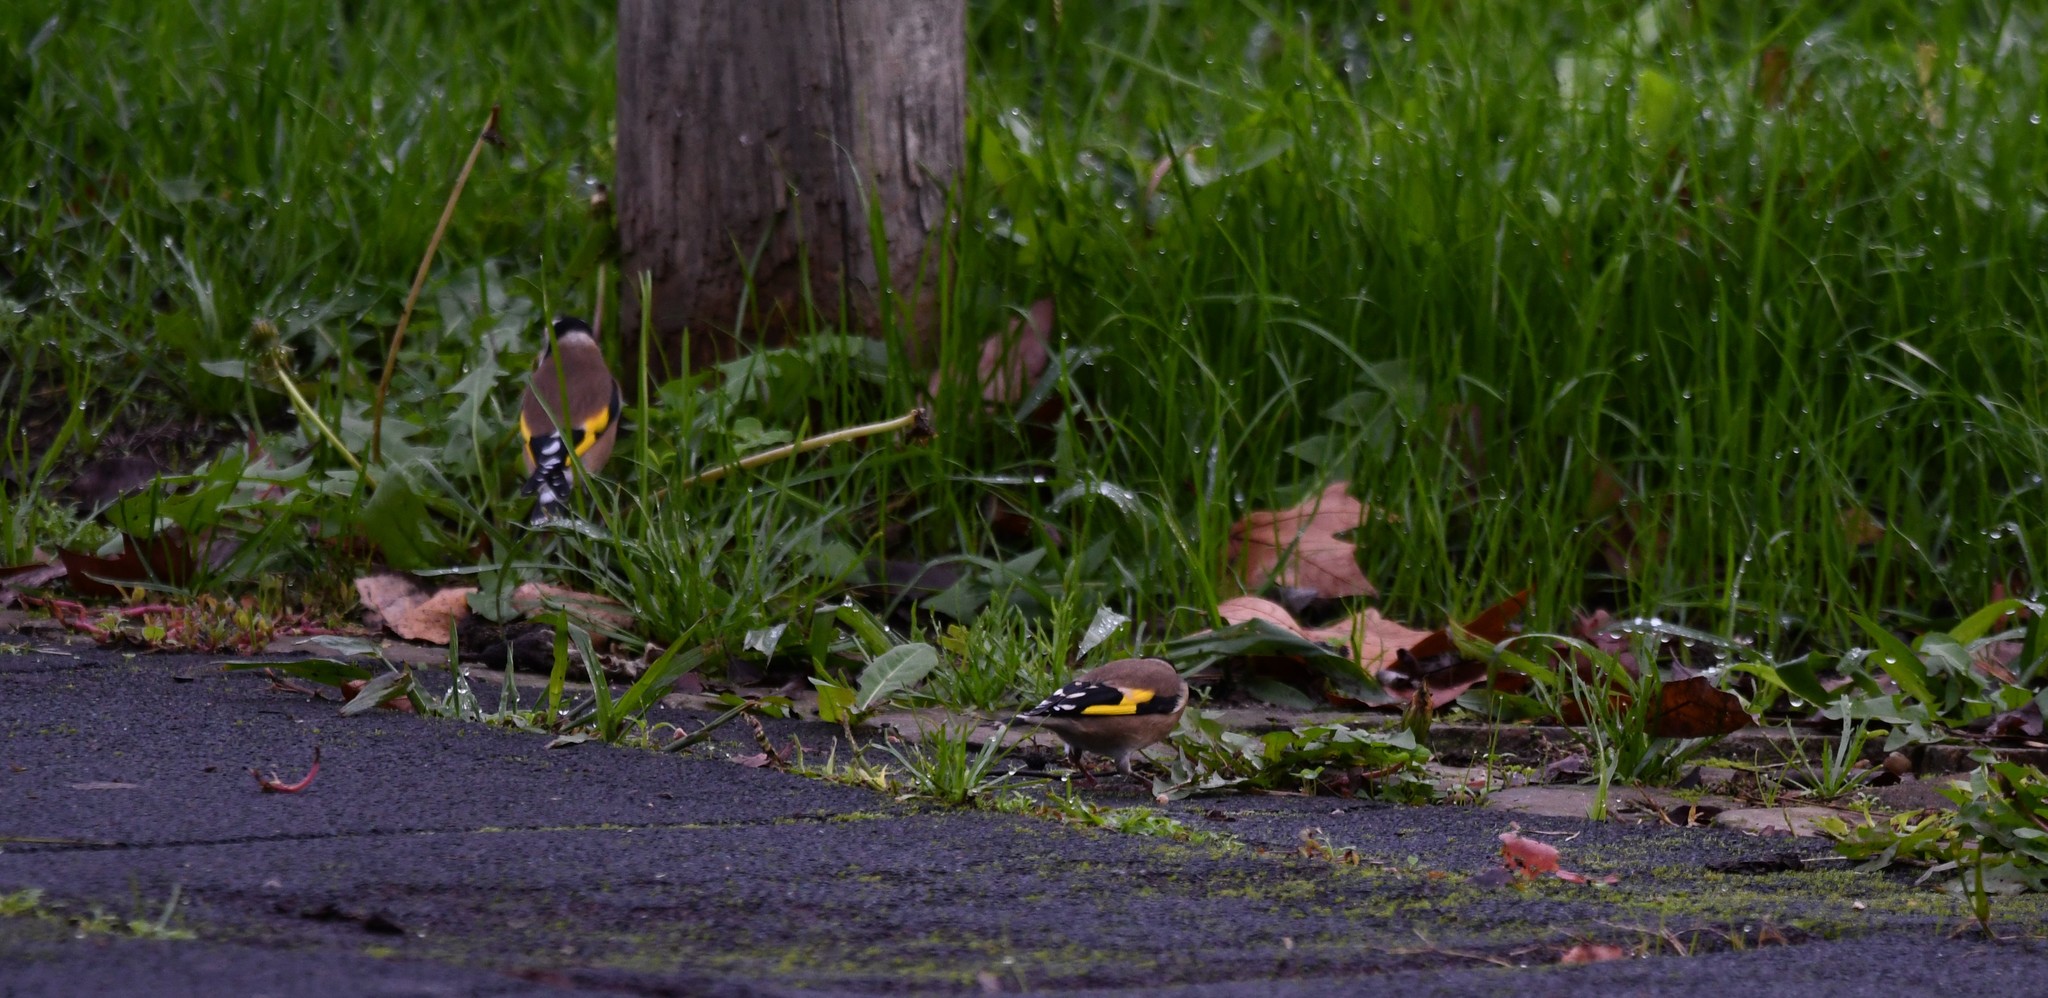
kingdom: Animalia
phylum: Chordata
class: Aves
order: Passeriformes
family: Fringillidae
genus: Carduelis
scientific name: Carduelis carduelis
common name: European goldfinch
